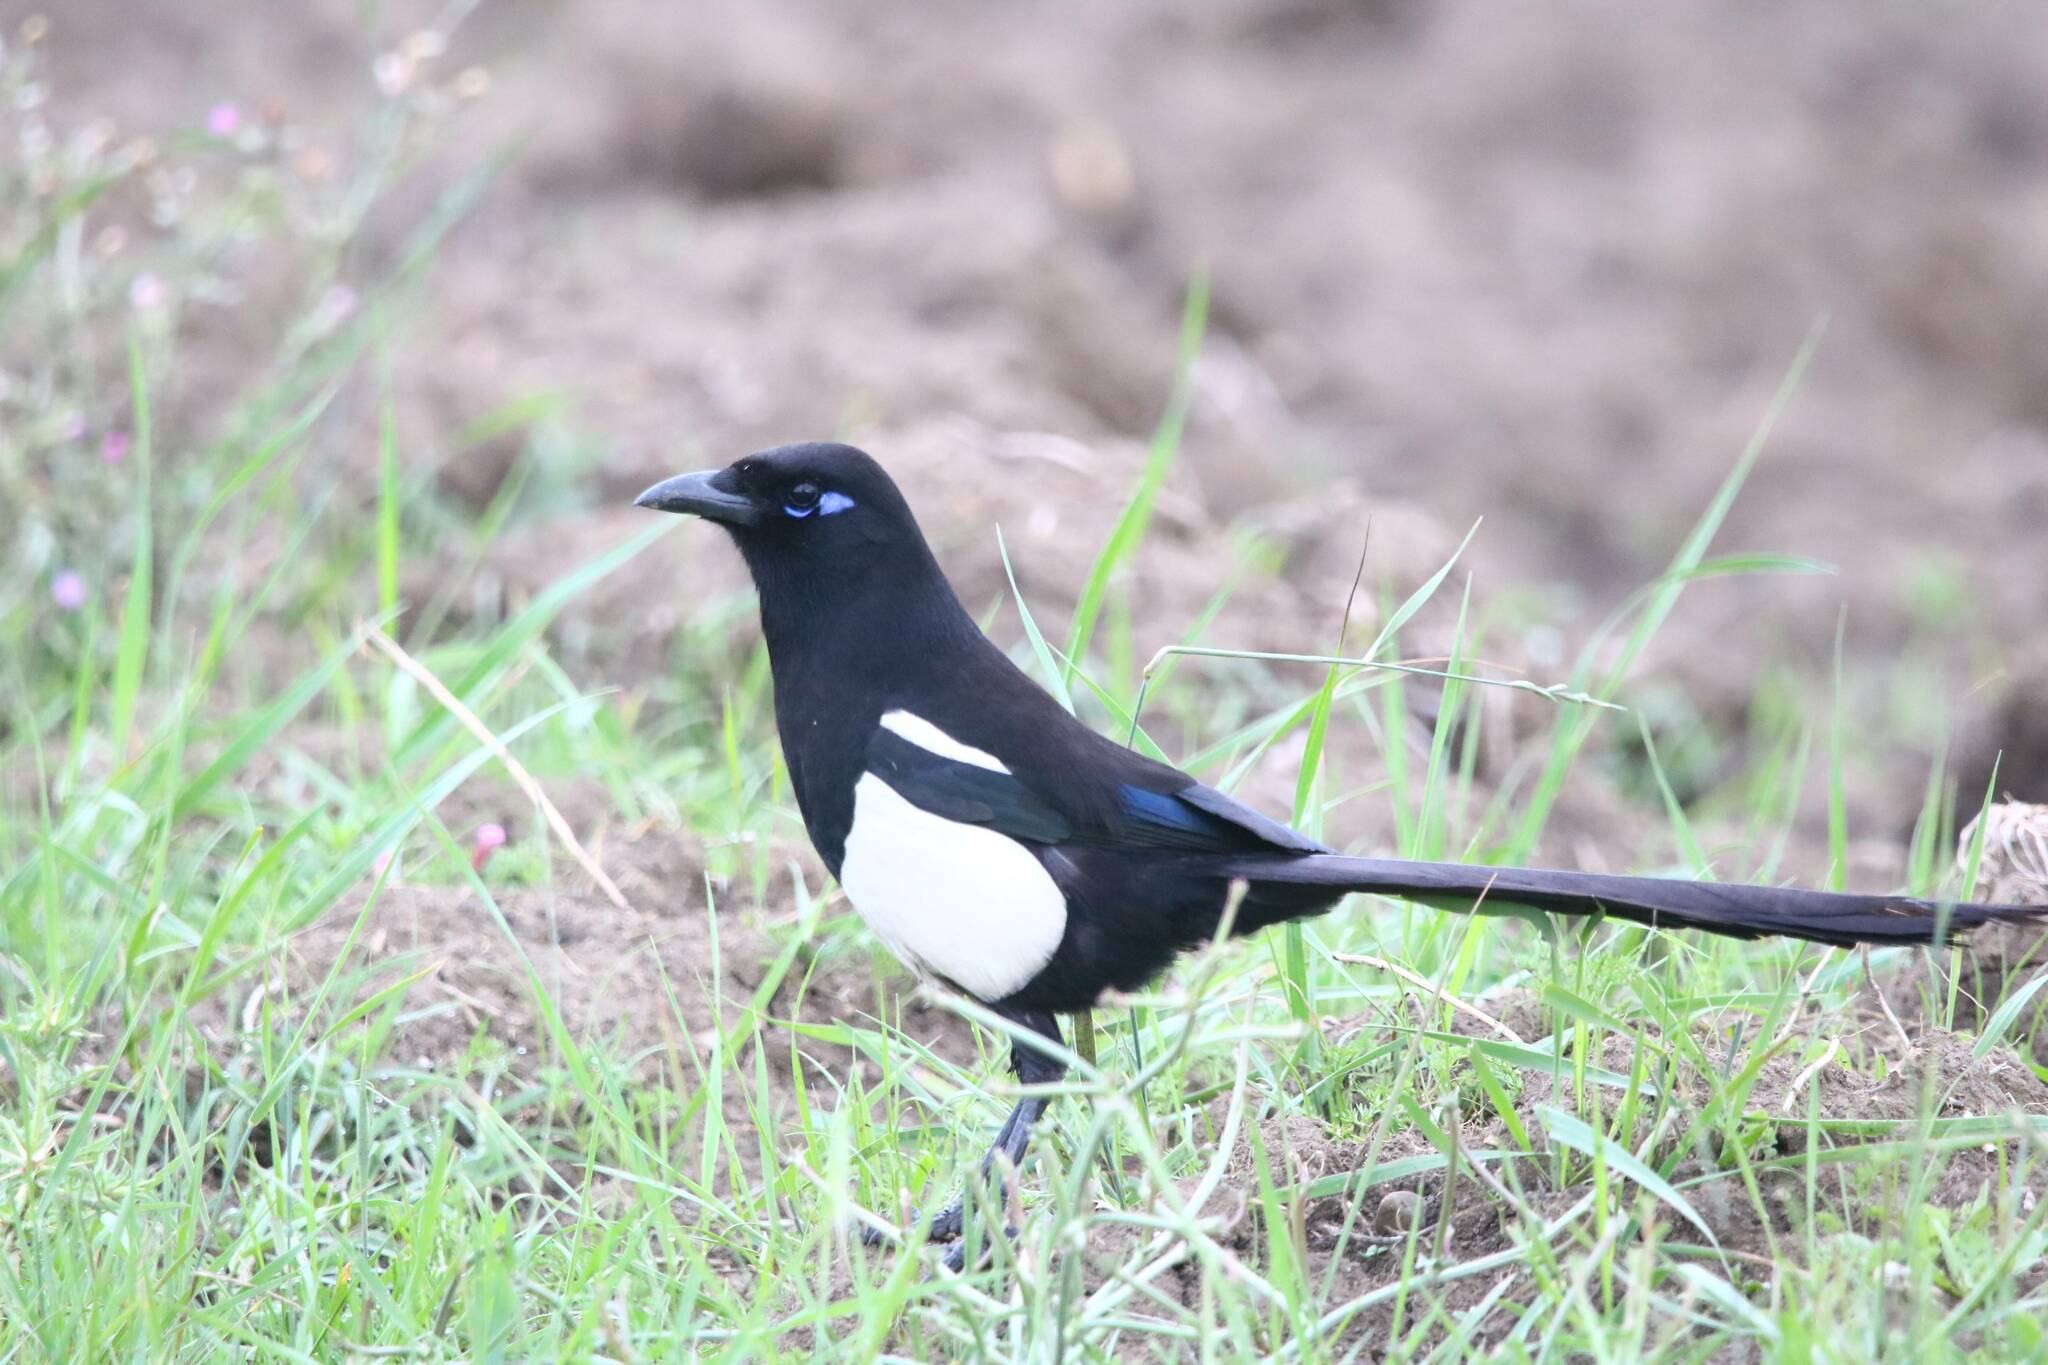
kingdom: Animalia
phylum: Chordata
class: Aves
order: Passeriformes
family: Corvidae
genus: Pica
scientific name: Pica mauritanica
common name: Maghreb magpie
